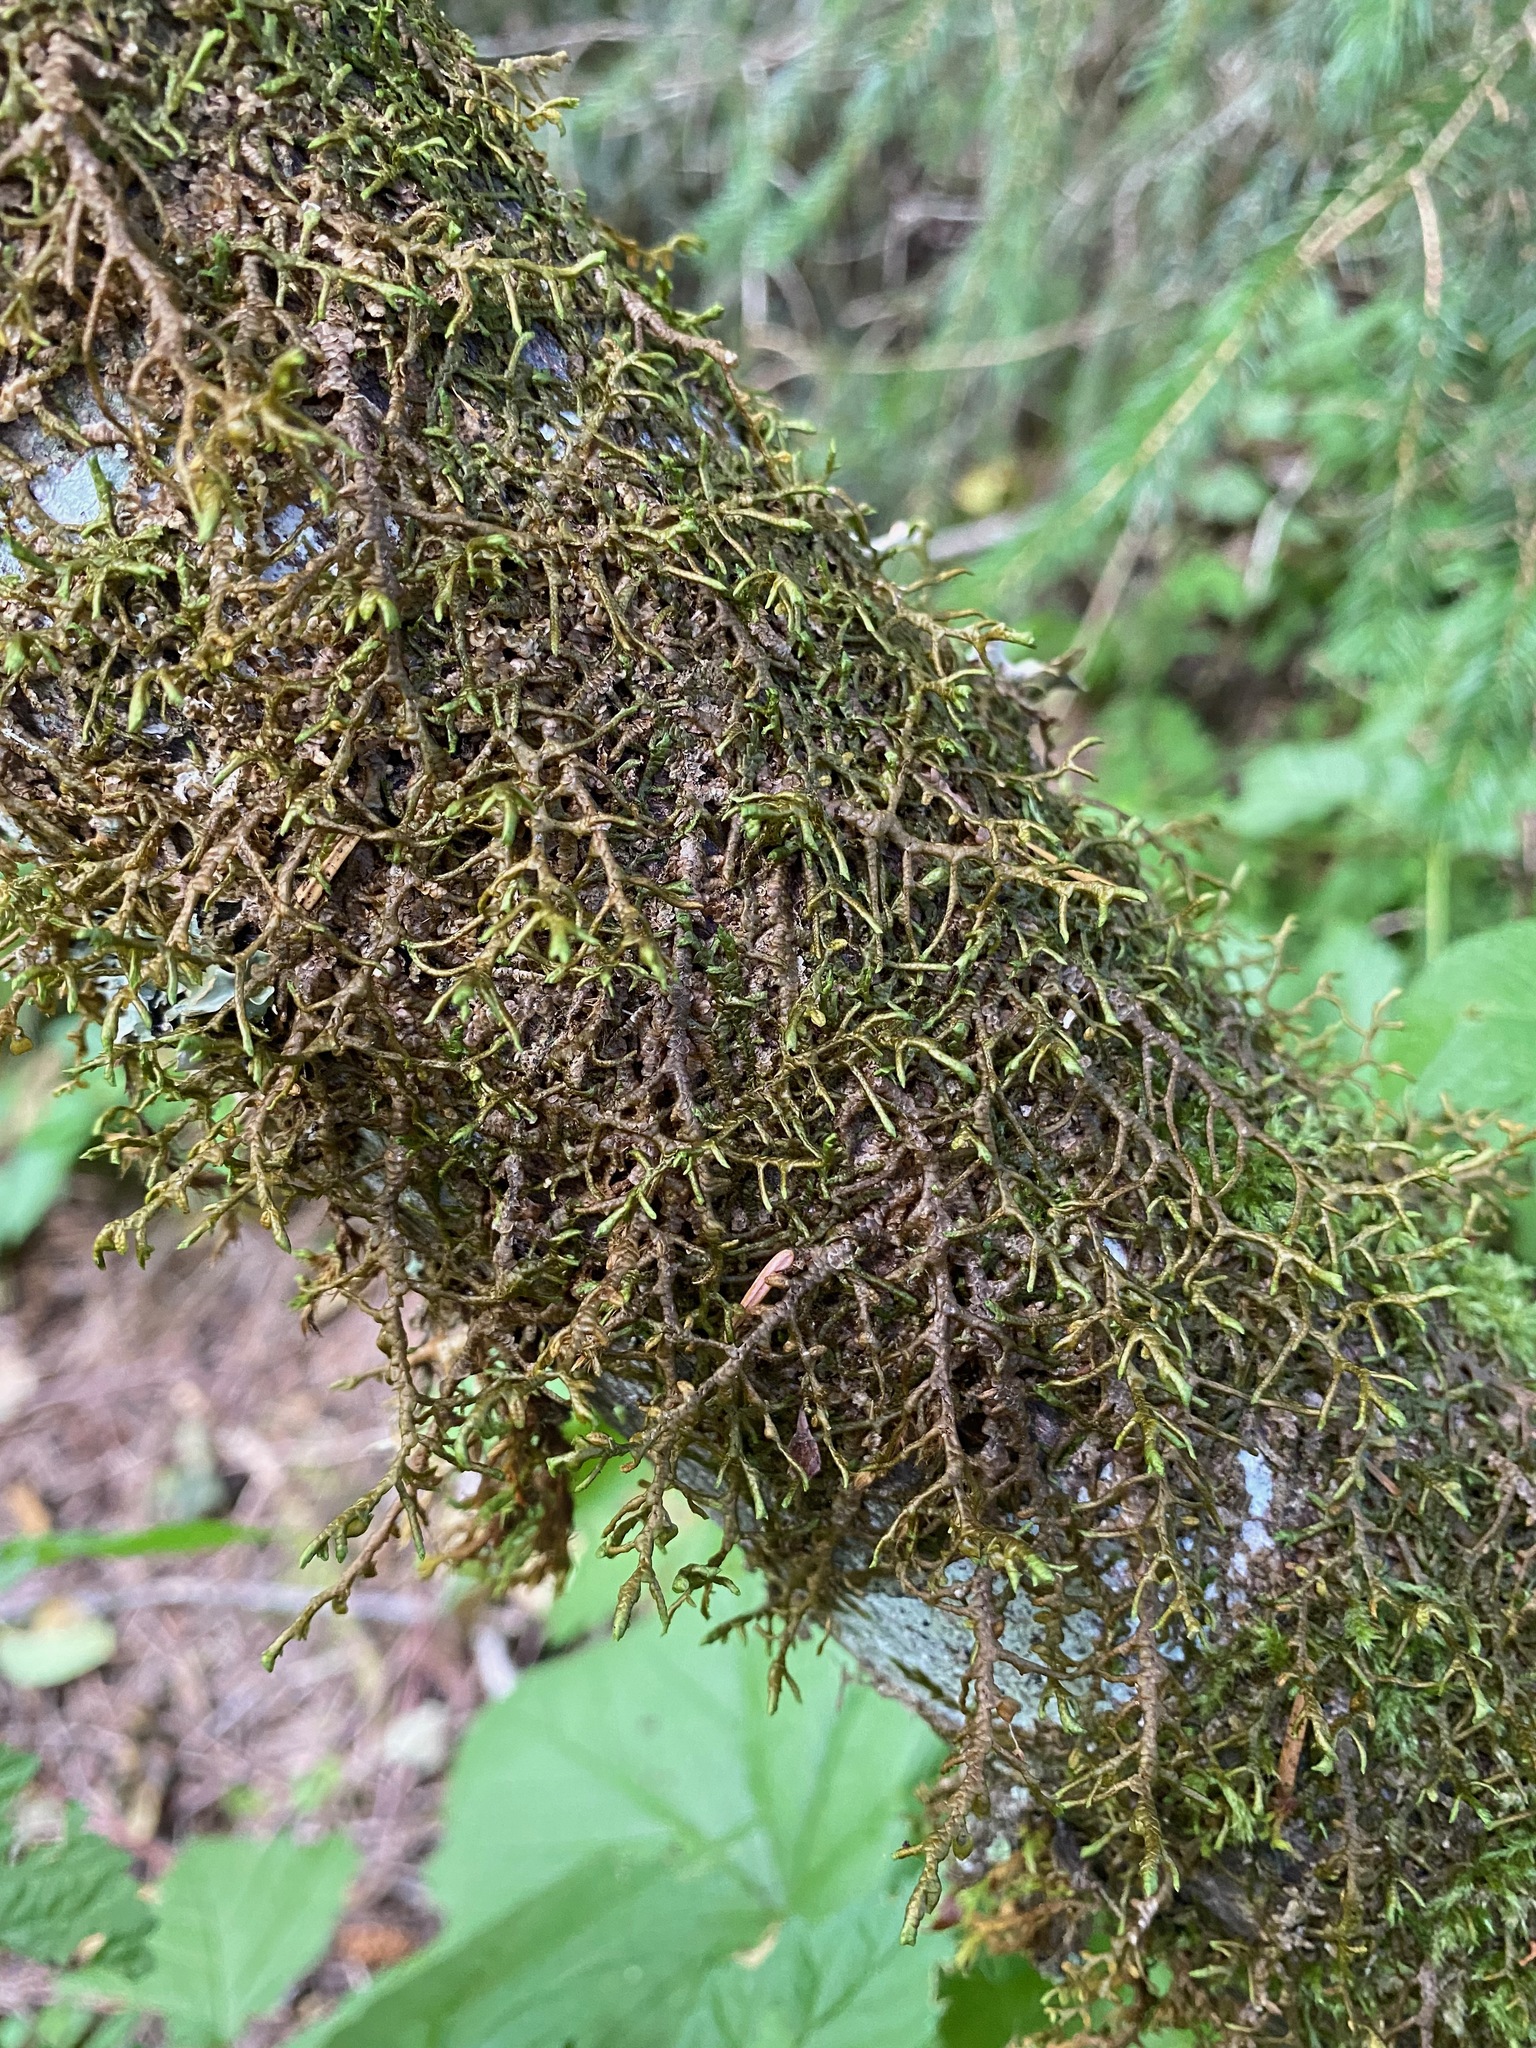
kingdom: Plantae
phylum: Marchantiophyta
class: Jungermanniopsida
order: Porellales
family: Porellaceae
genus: Porella
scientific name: Porella navicularis
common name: Tree ruffle liverwort
